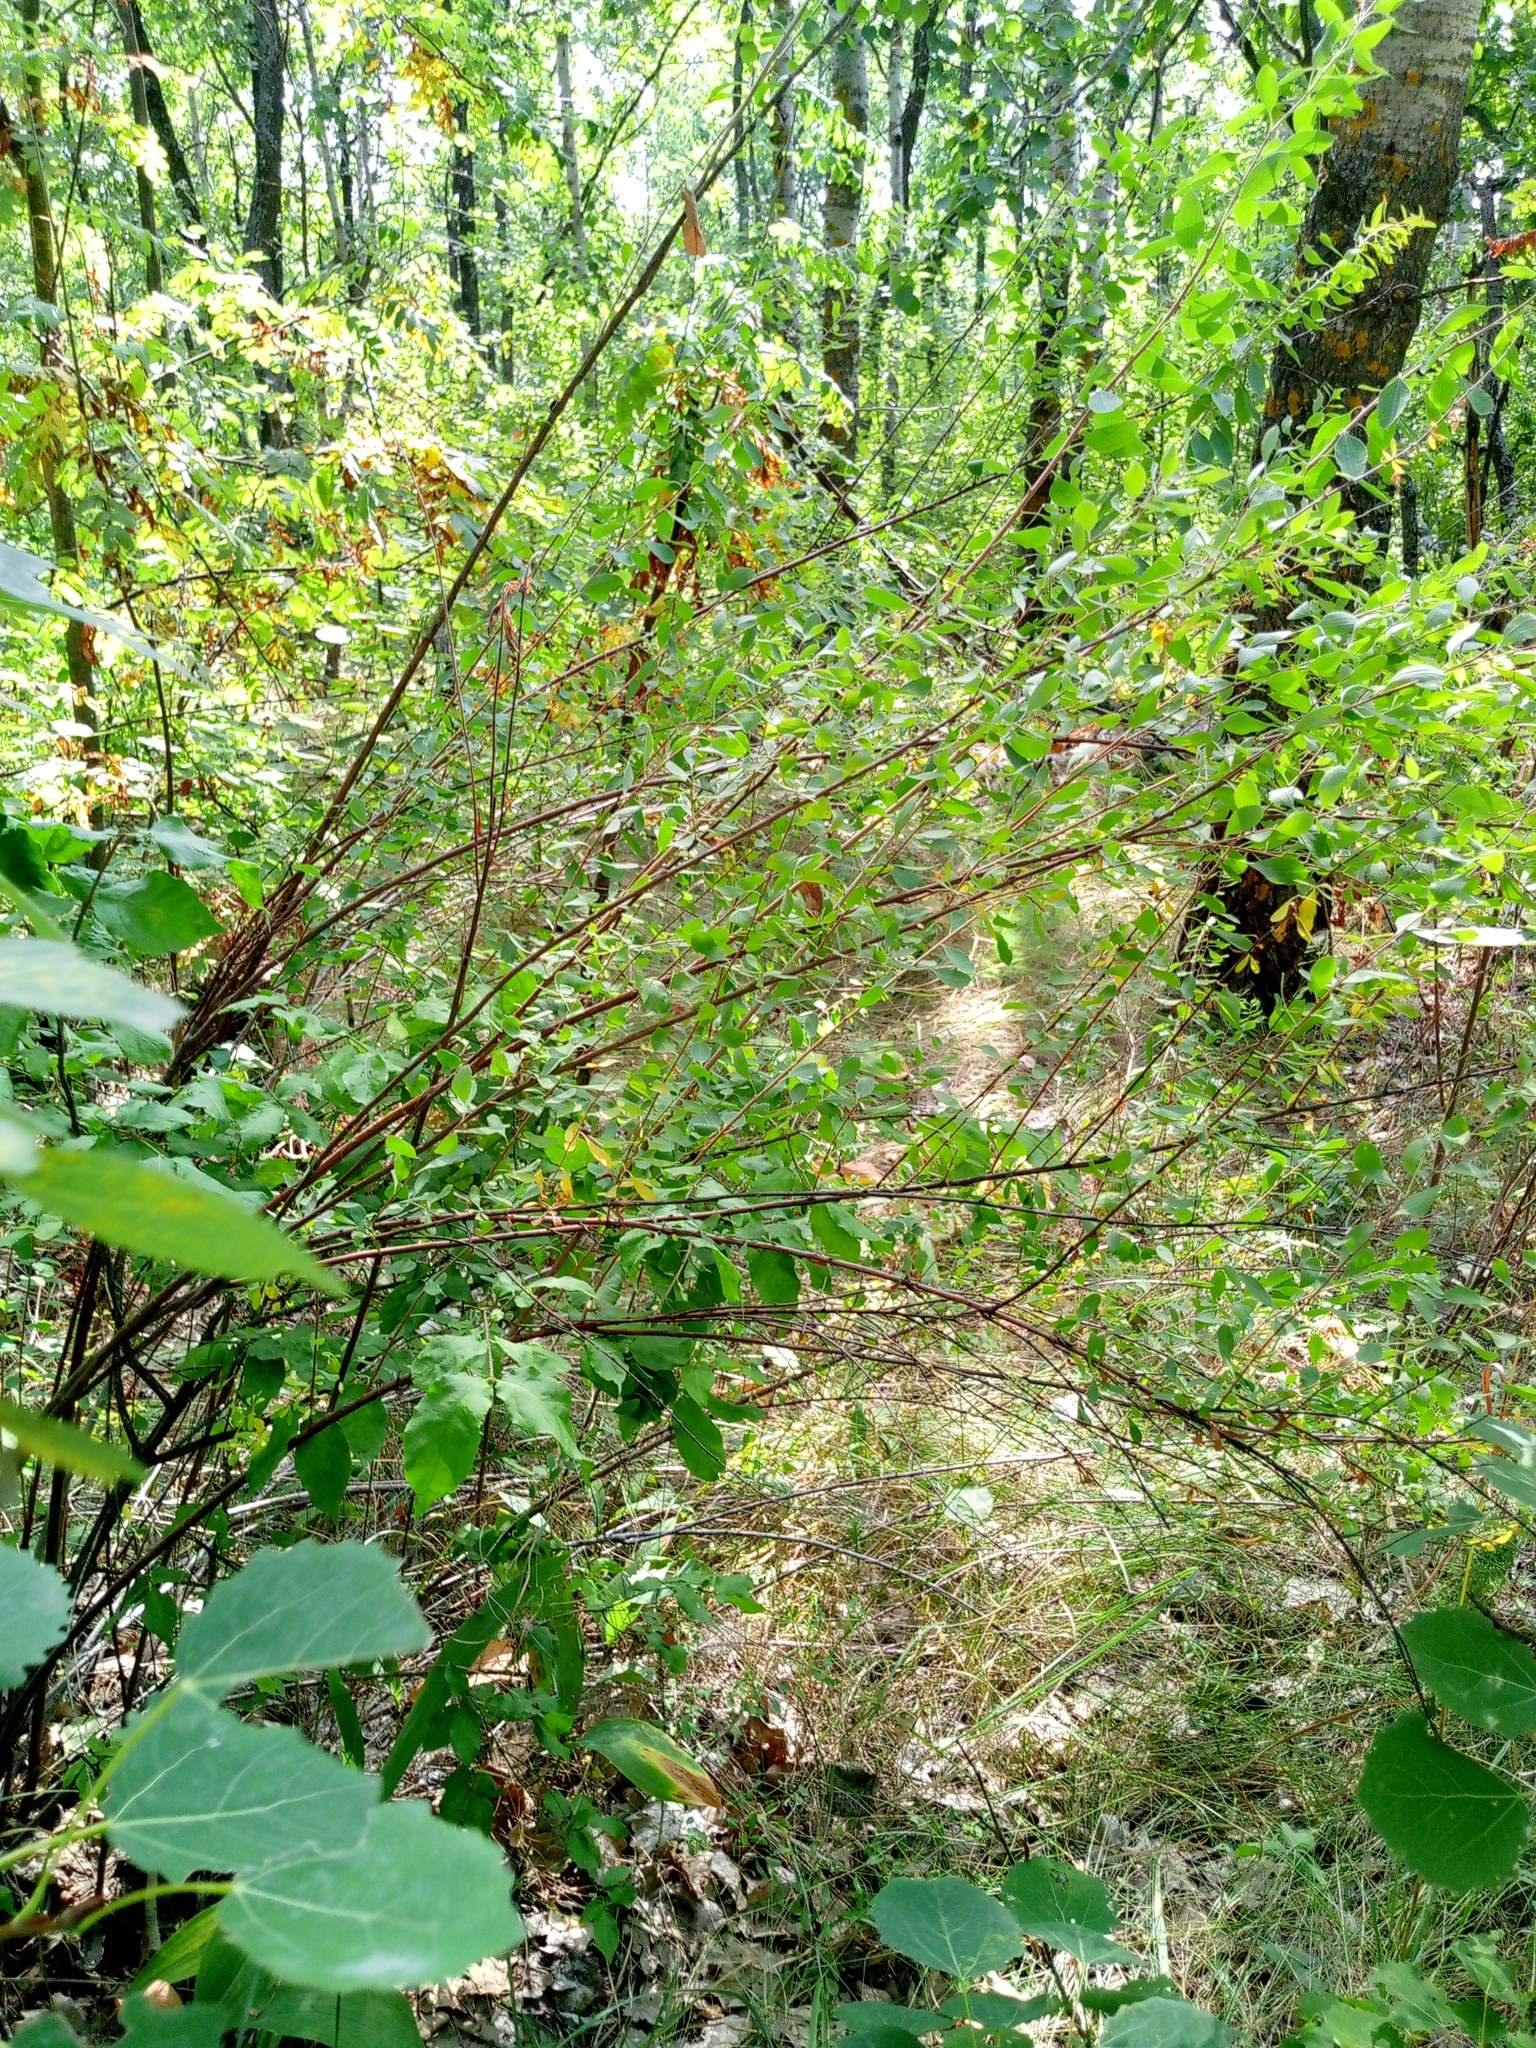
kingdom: Plantae
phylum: Tracheophyta
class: Magnoliopsida
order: Rosales
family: Rosaceae
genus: Spiraea
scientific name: Spiraea crenata
